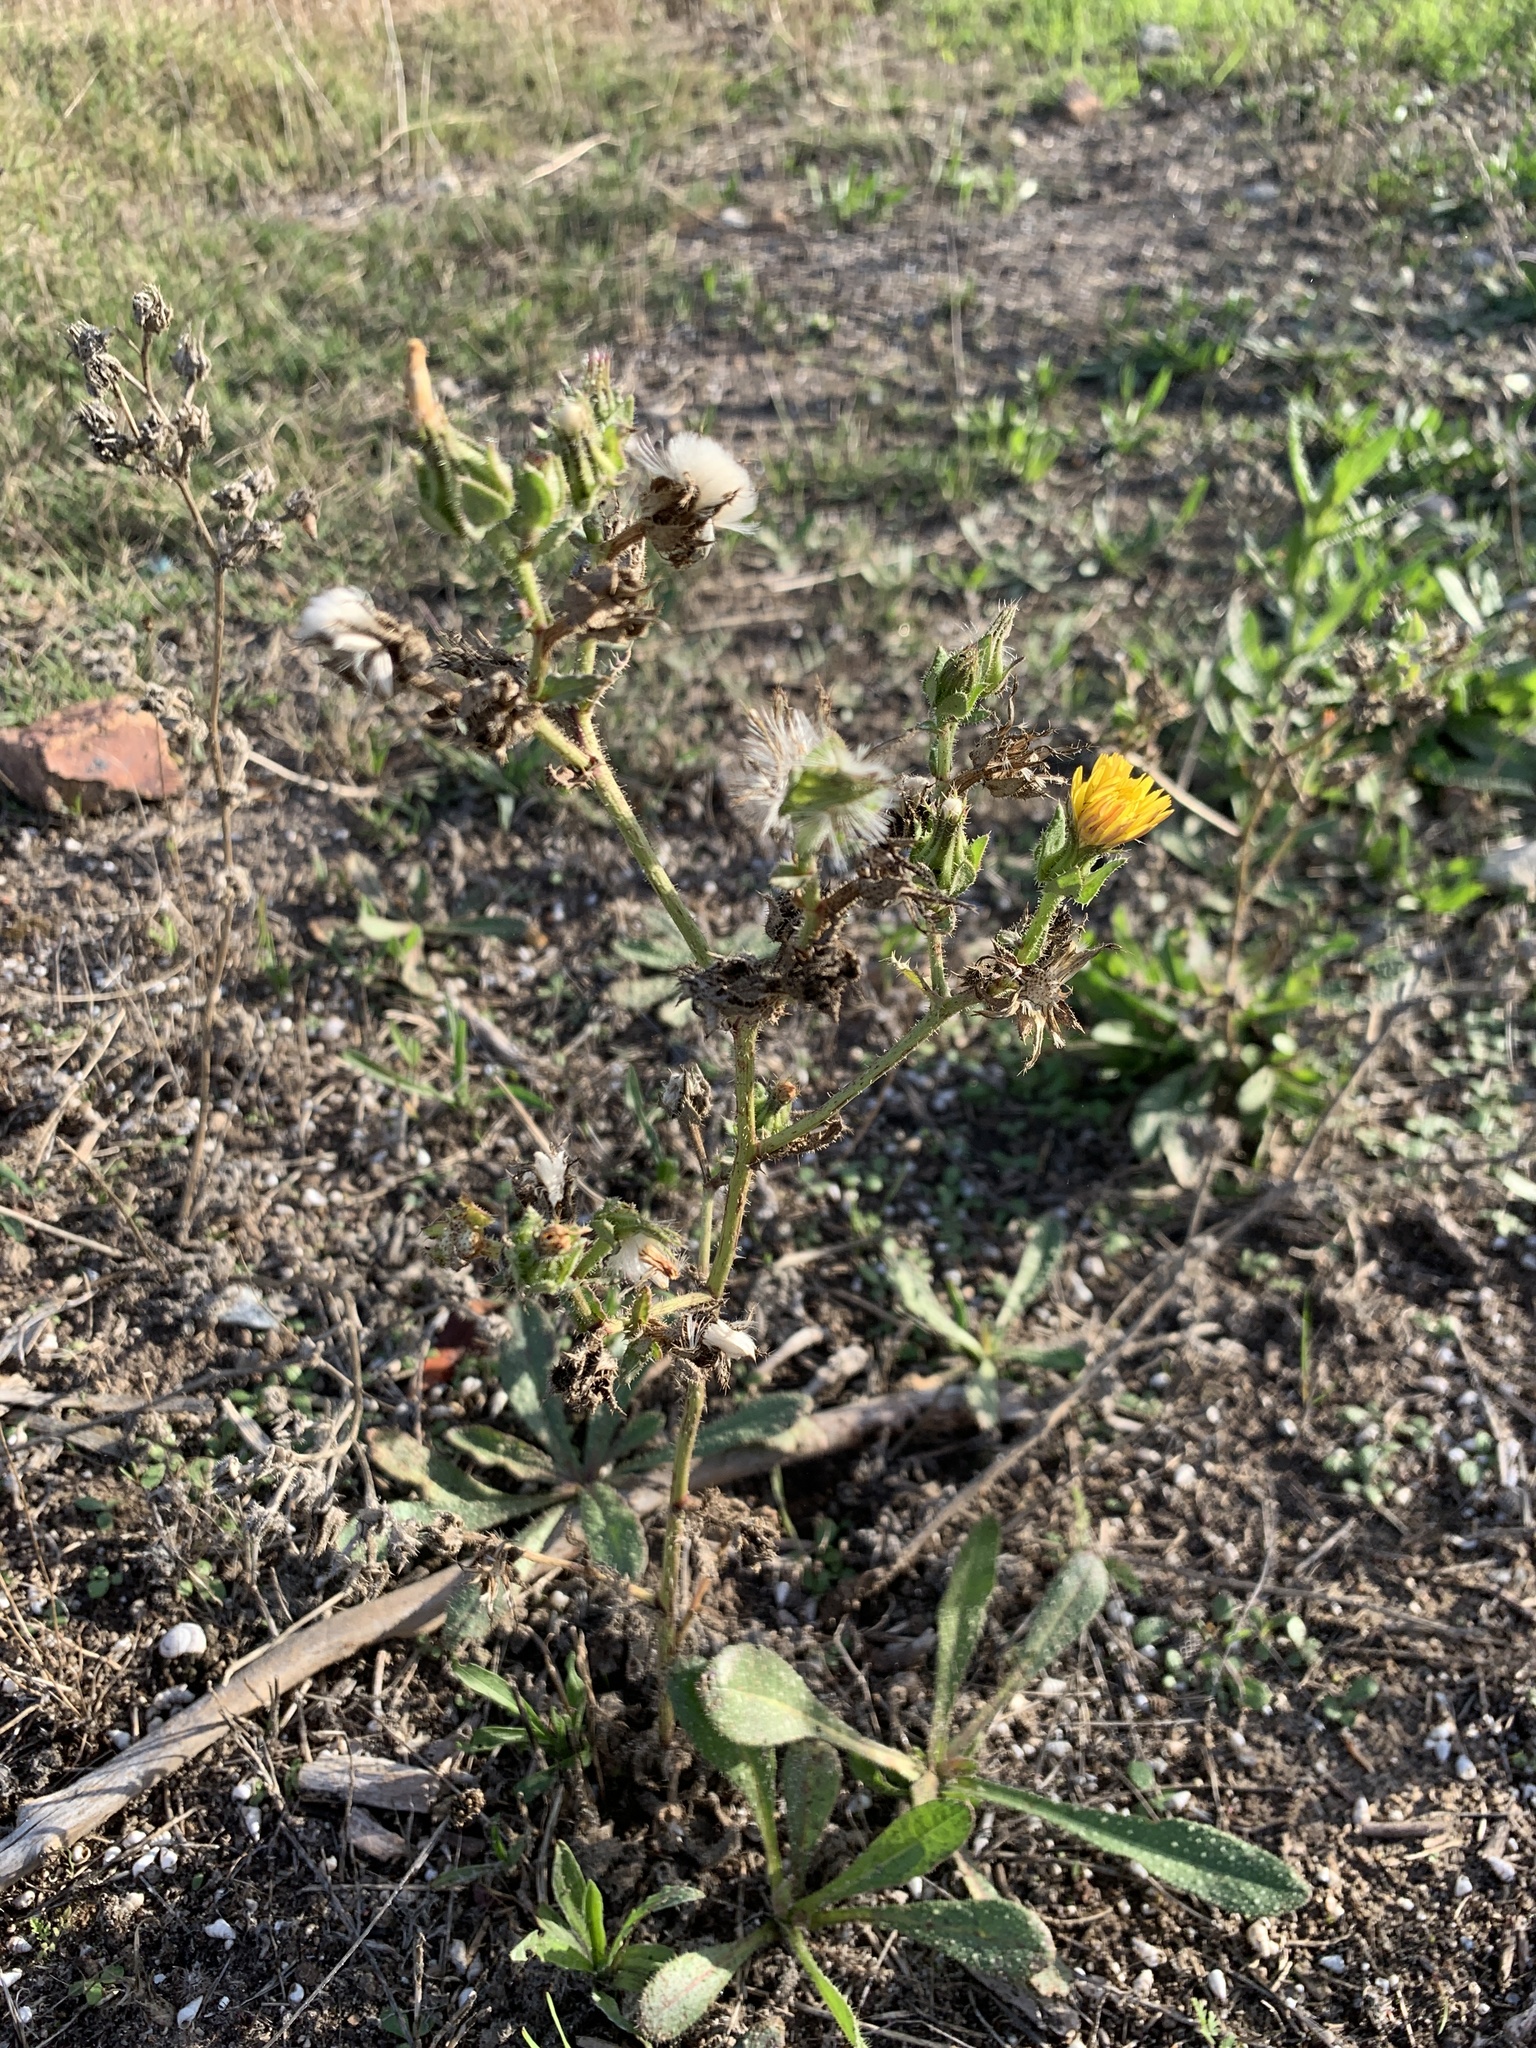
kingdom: Plantae
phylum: Tracheophyta
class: Magnoliopsida
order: Asterales
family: Asteraceae
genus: Helminthotheca
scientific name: Helminthotheca echioides
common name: Ox-tongue
